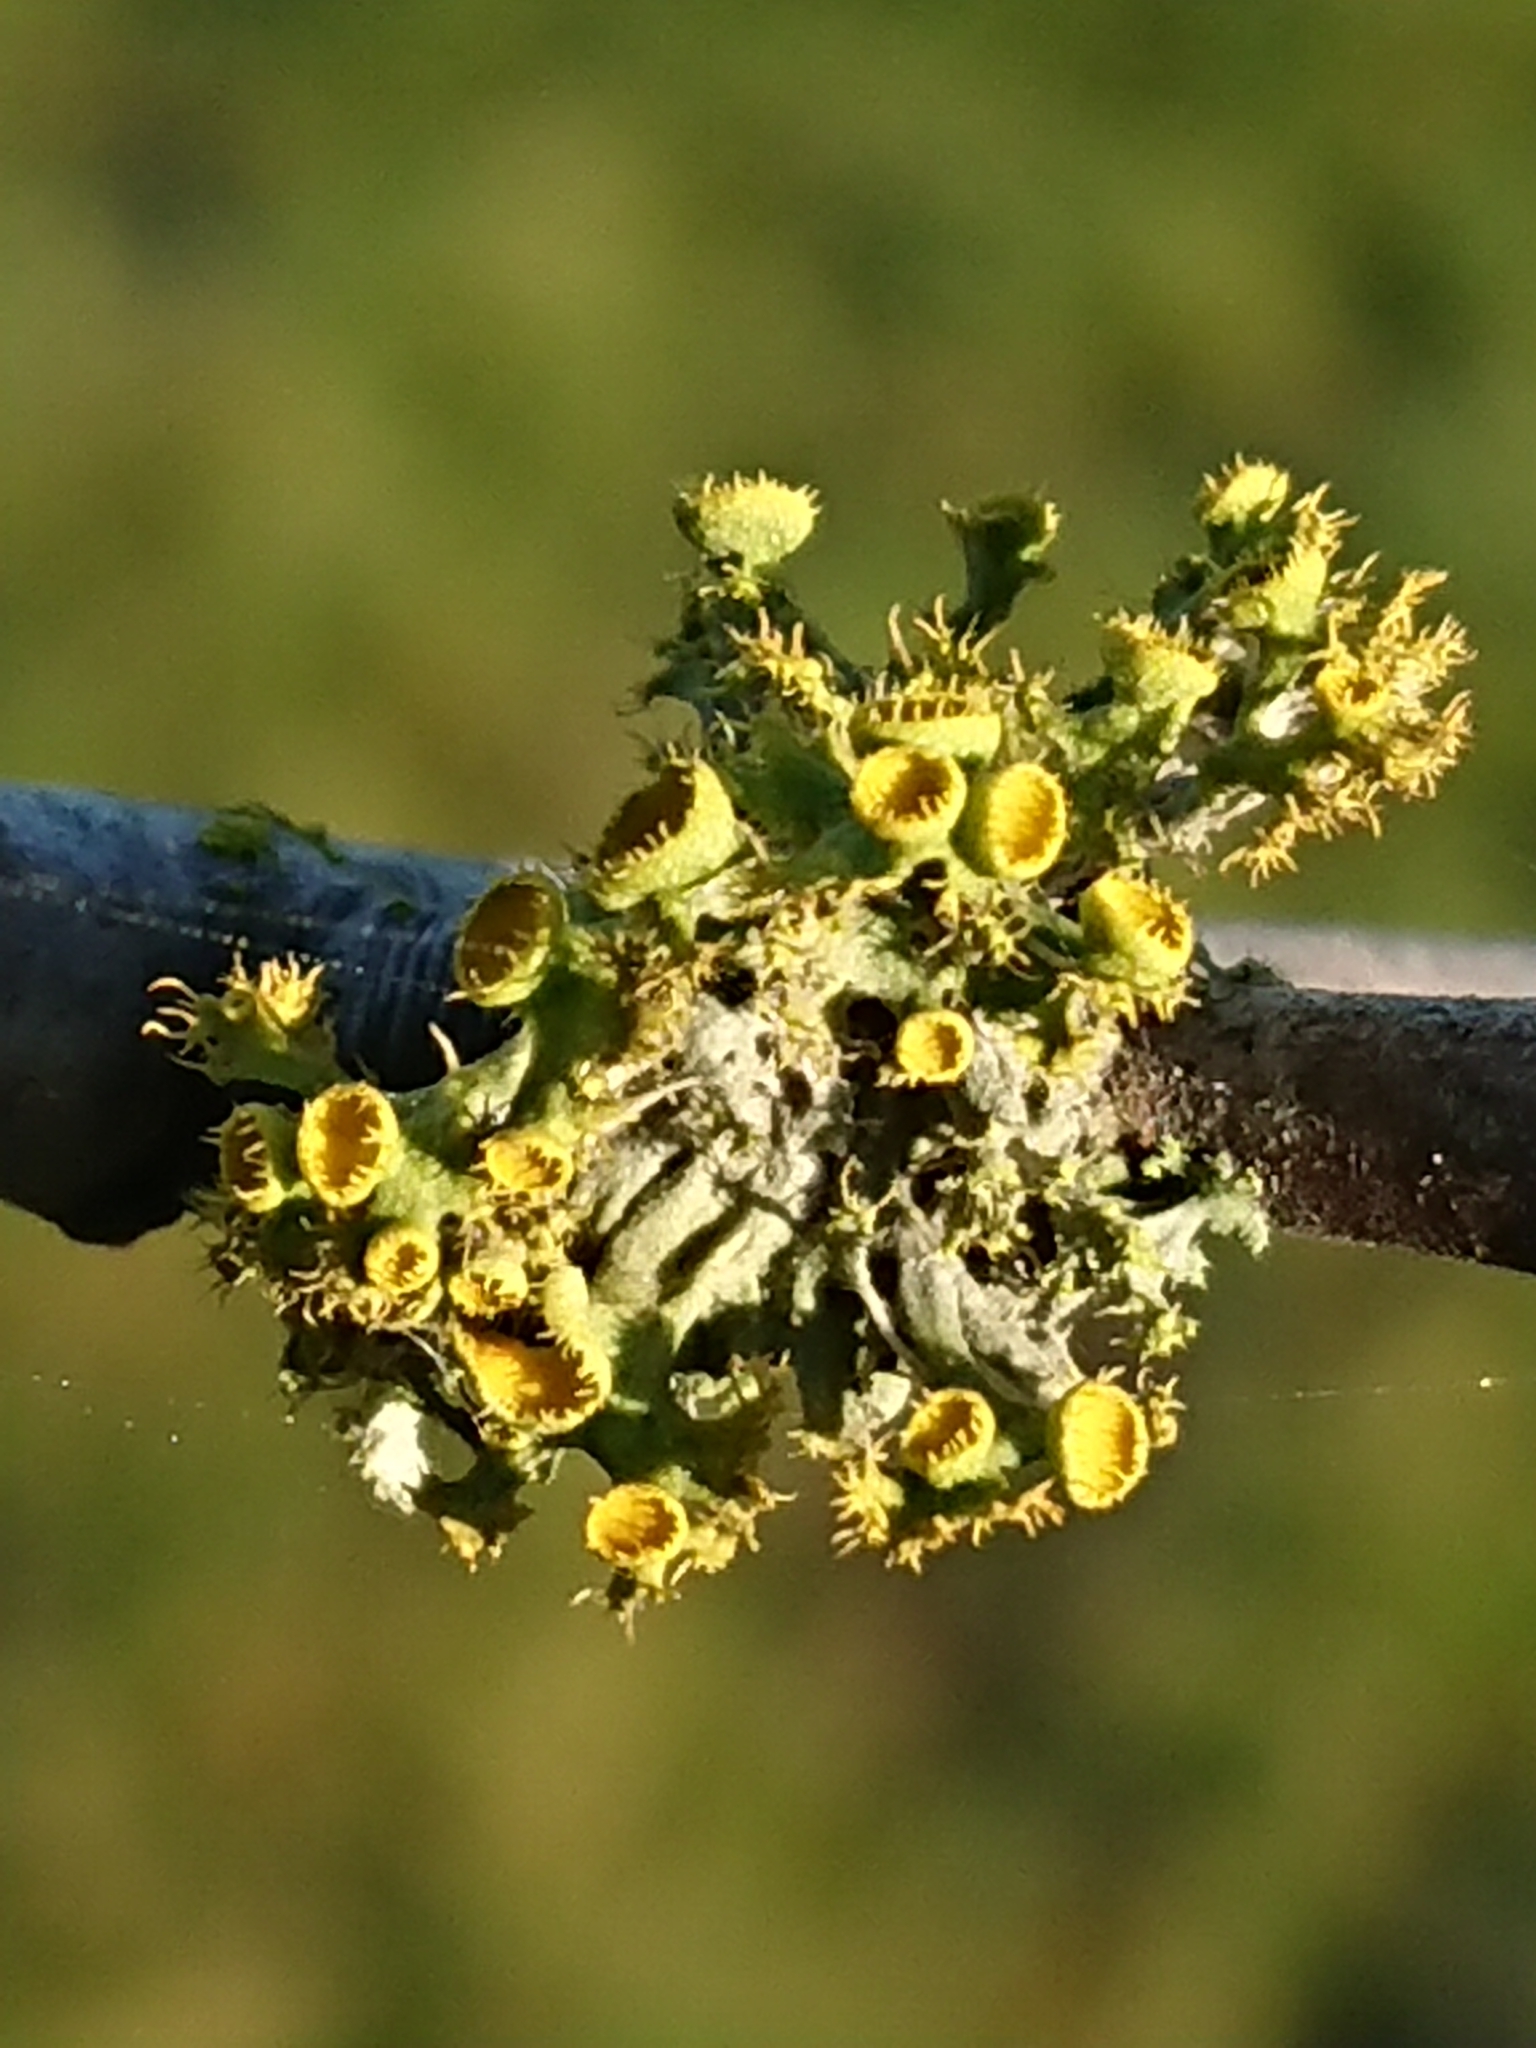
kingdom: Fungi
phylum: Ascomycota
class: Lecanoromycetes
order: Teloschistales
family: Teloschistaceae
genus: Niorma
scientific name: Niorma chrysophthalma
